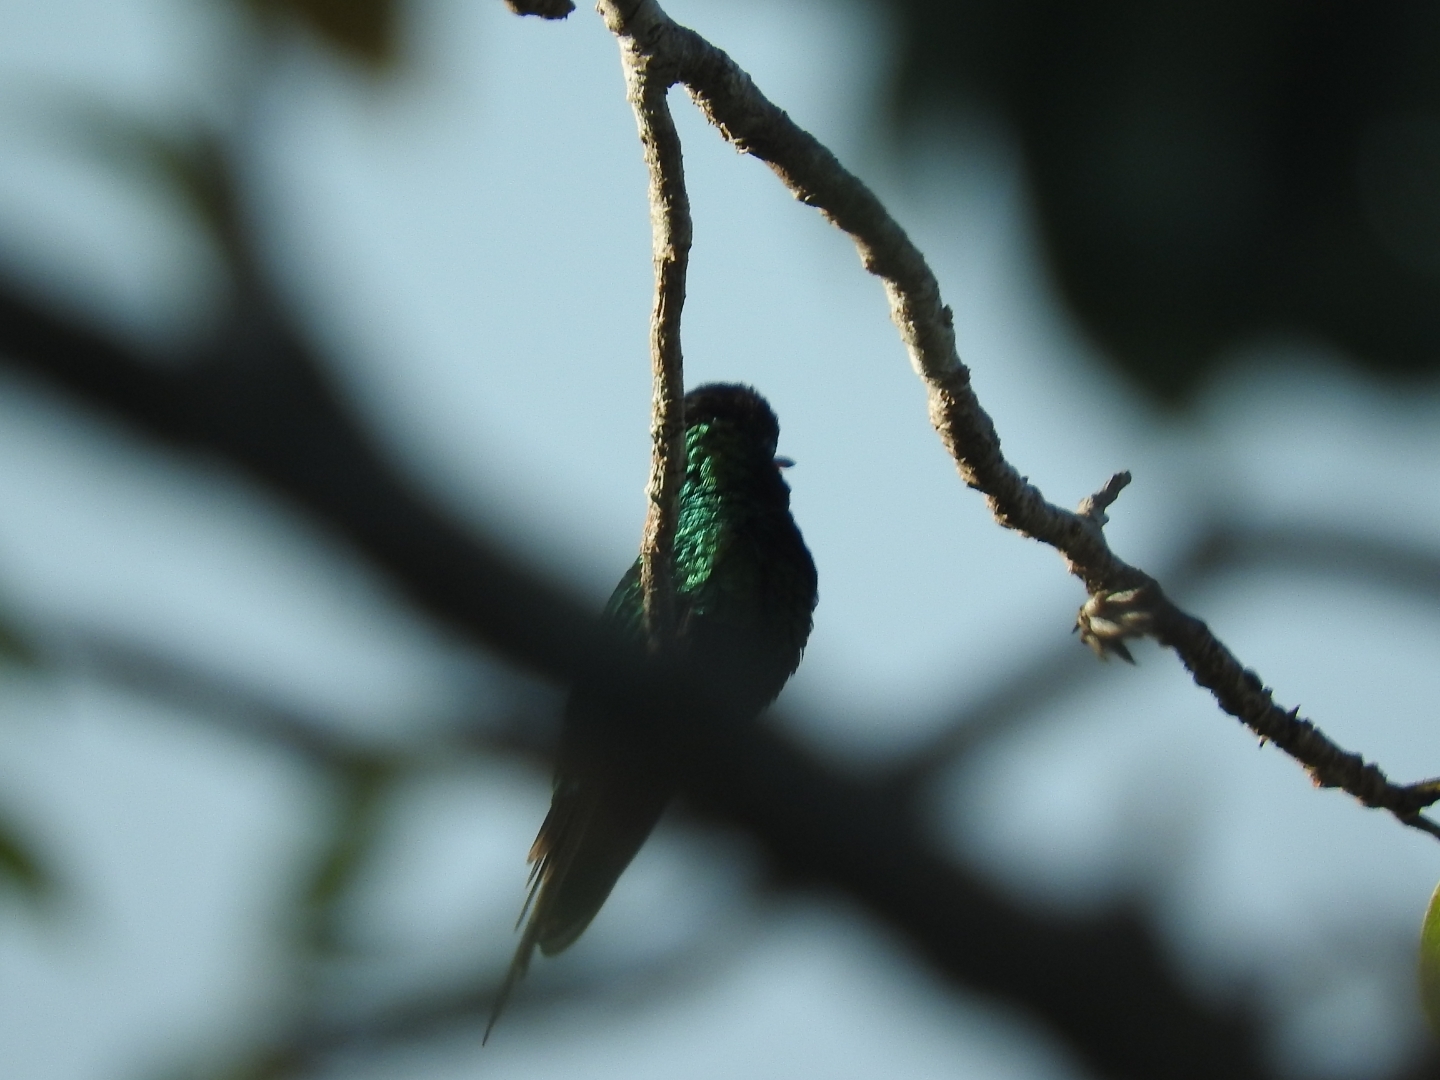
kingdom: Animalia
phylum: Chordata
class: Aves
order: Apodiformes
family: Trochilidae
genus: Cynanthus
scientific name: Cynanthus canivetii
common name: Canivet's emerald
